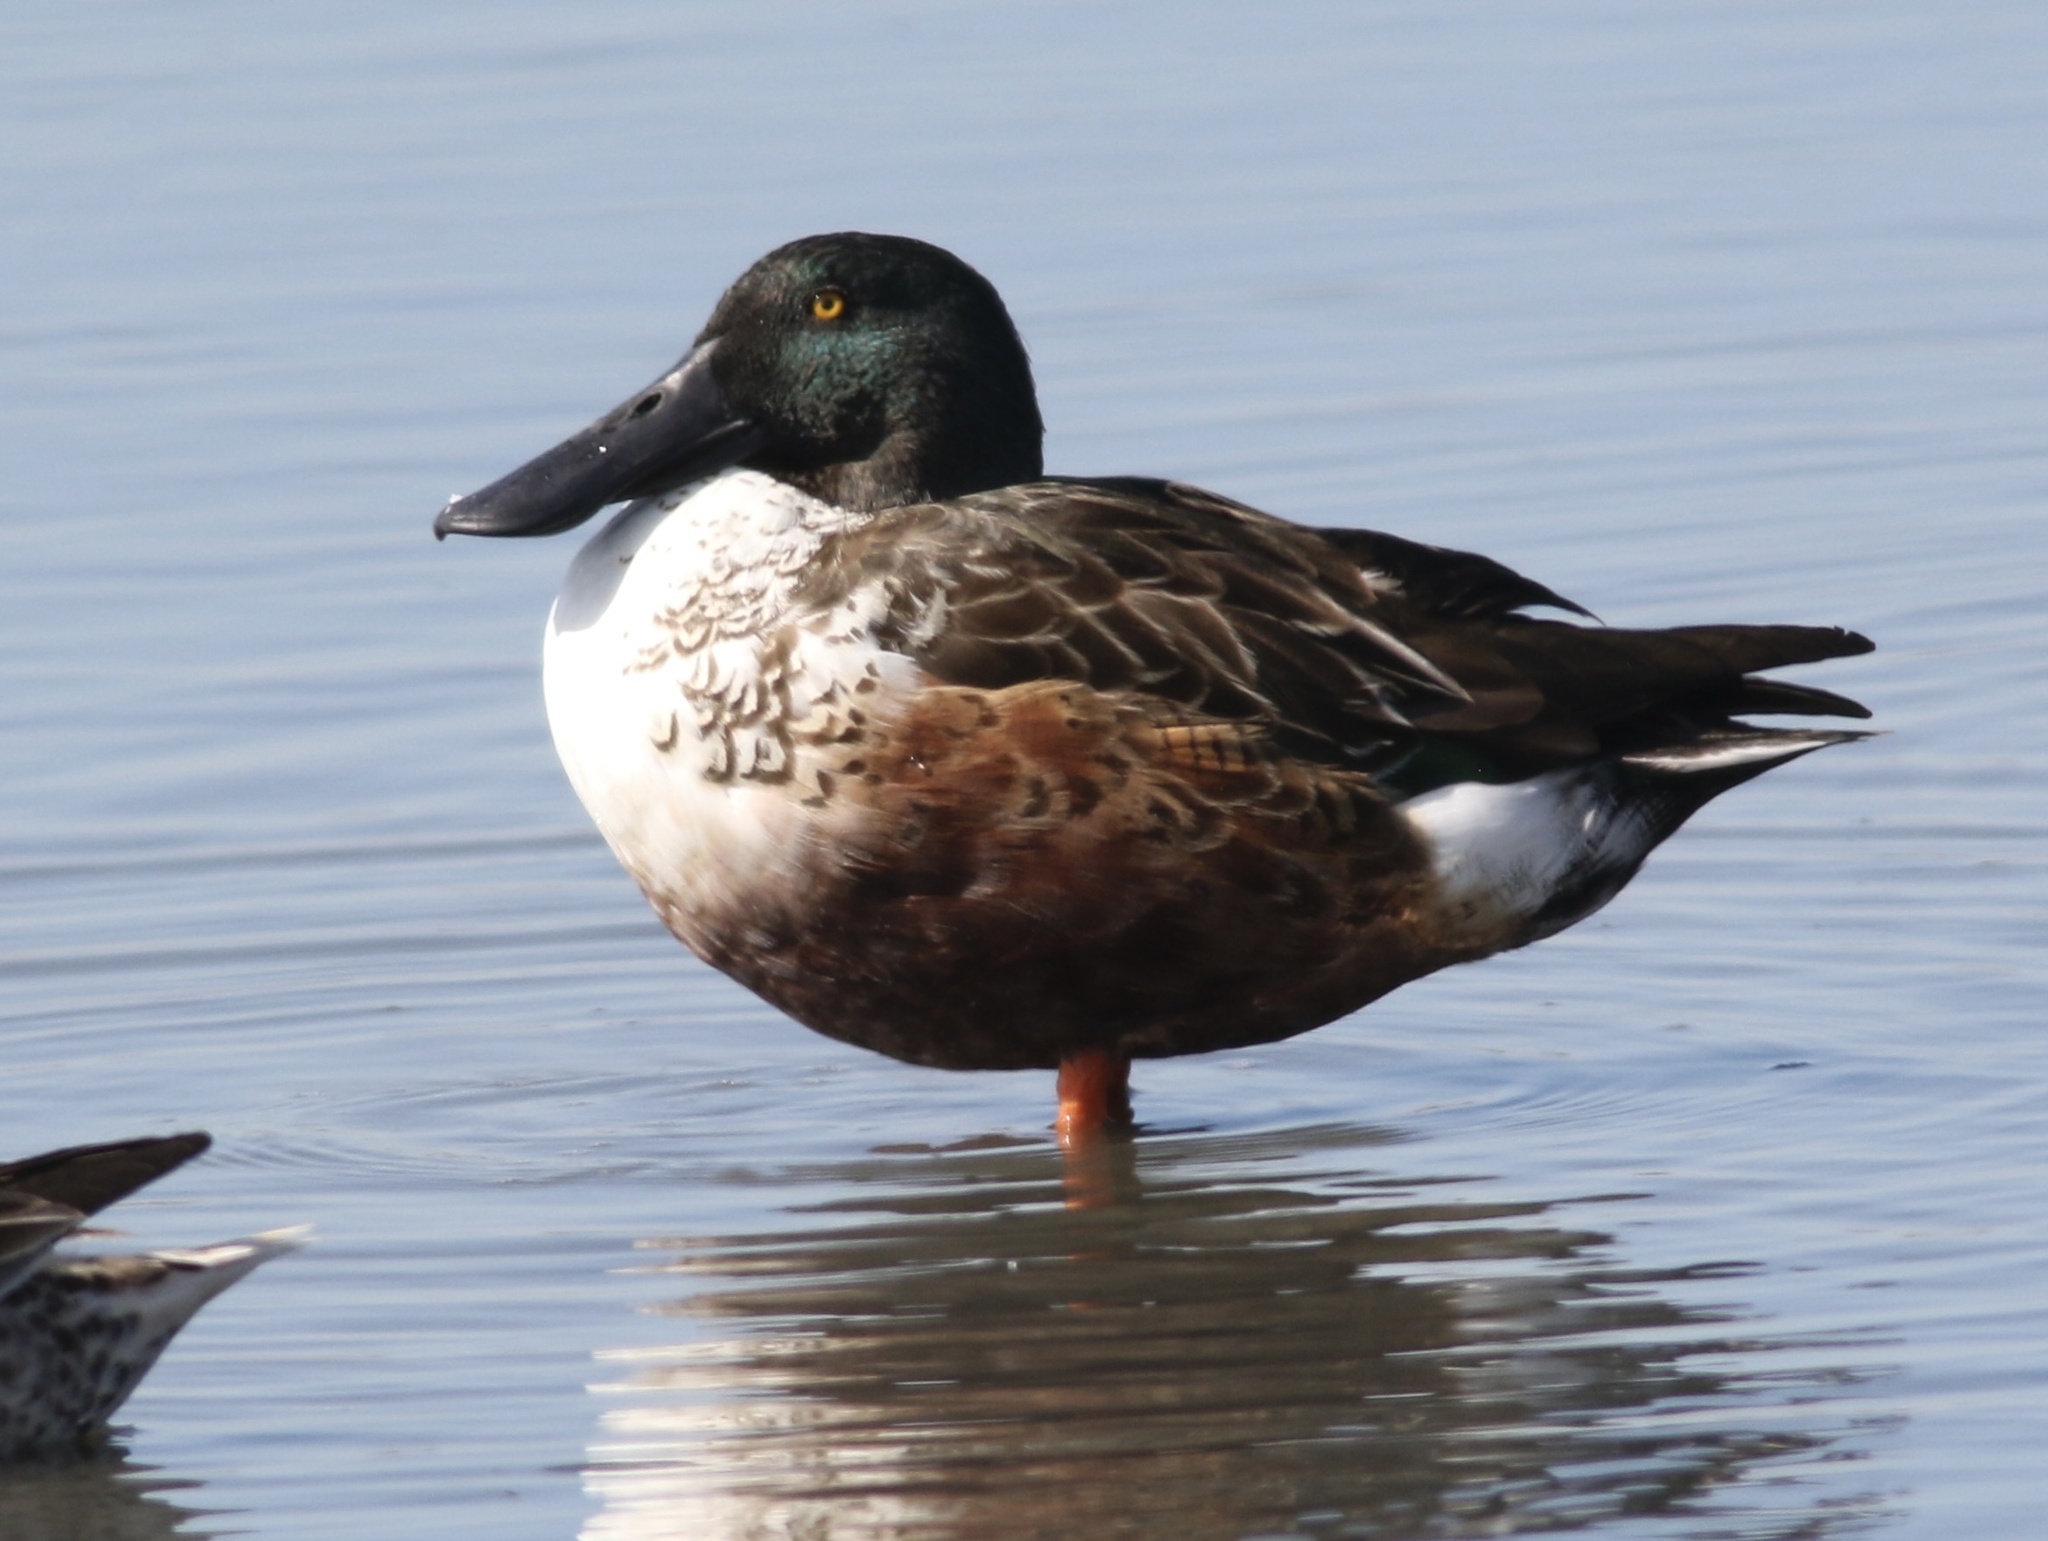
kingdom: Animalia
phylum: Chordata
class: Aves
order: Anseriformes
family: Anatidae
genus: Spatula
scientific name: Spatula clypeata
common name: Northern shoveler
